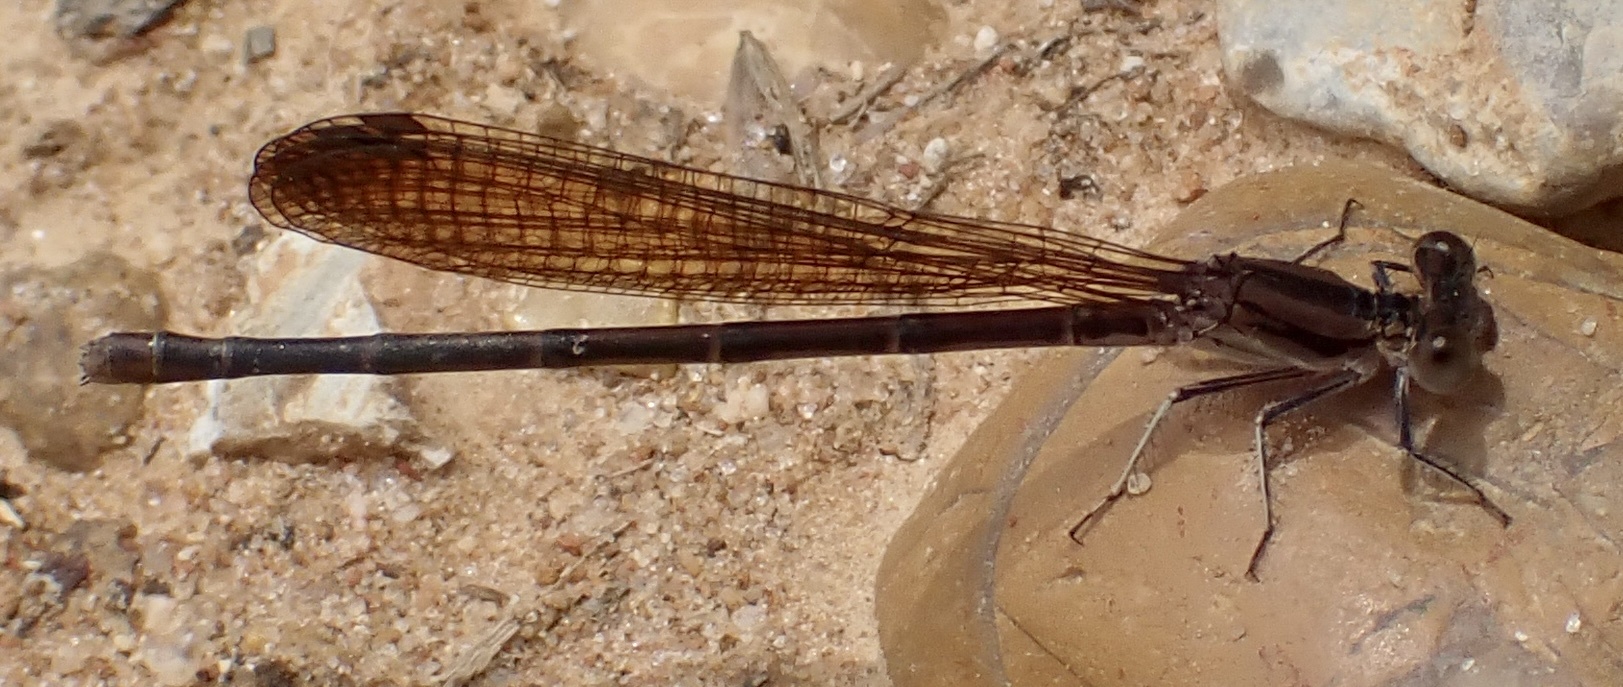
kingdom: Animalia
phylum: Arthropoda
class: Insecta
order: Odonata
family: Coenagrionidae
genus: Argia
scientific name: Argia fumipennis
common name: Variable dancer
